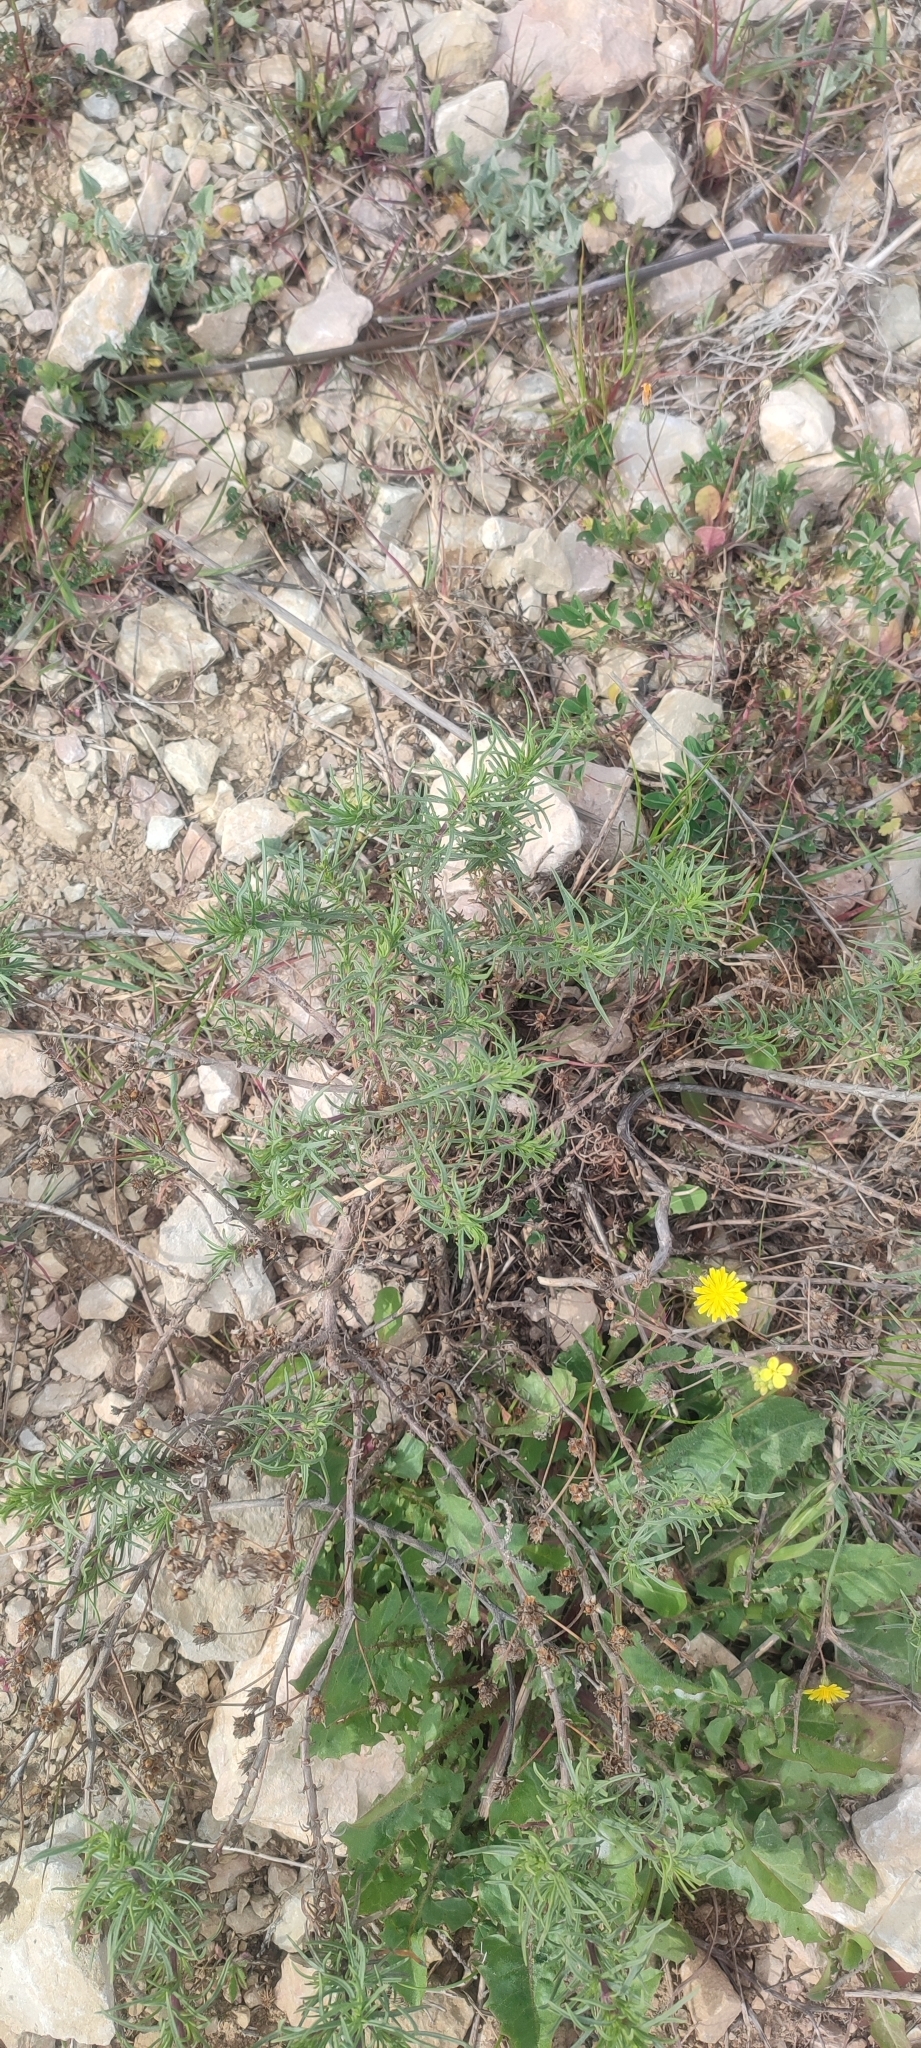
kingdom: Plantae
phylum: Tracheophyta
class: Magnoliopsida
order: Lamiales
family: Plantaginaceae
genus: Plantago
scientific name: Plantago sempervirens
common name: Shrubby plantain
